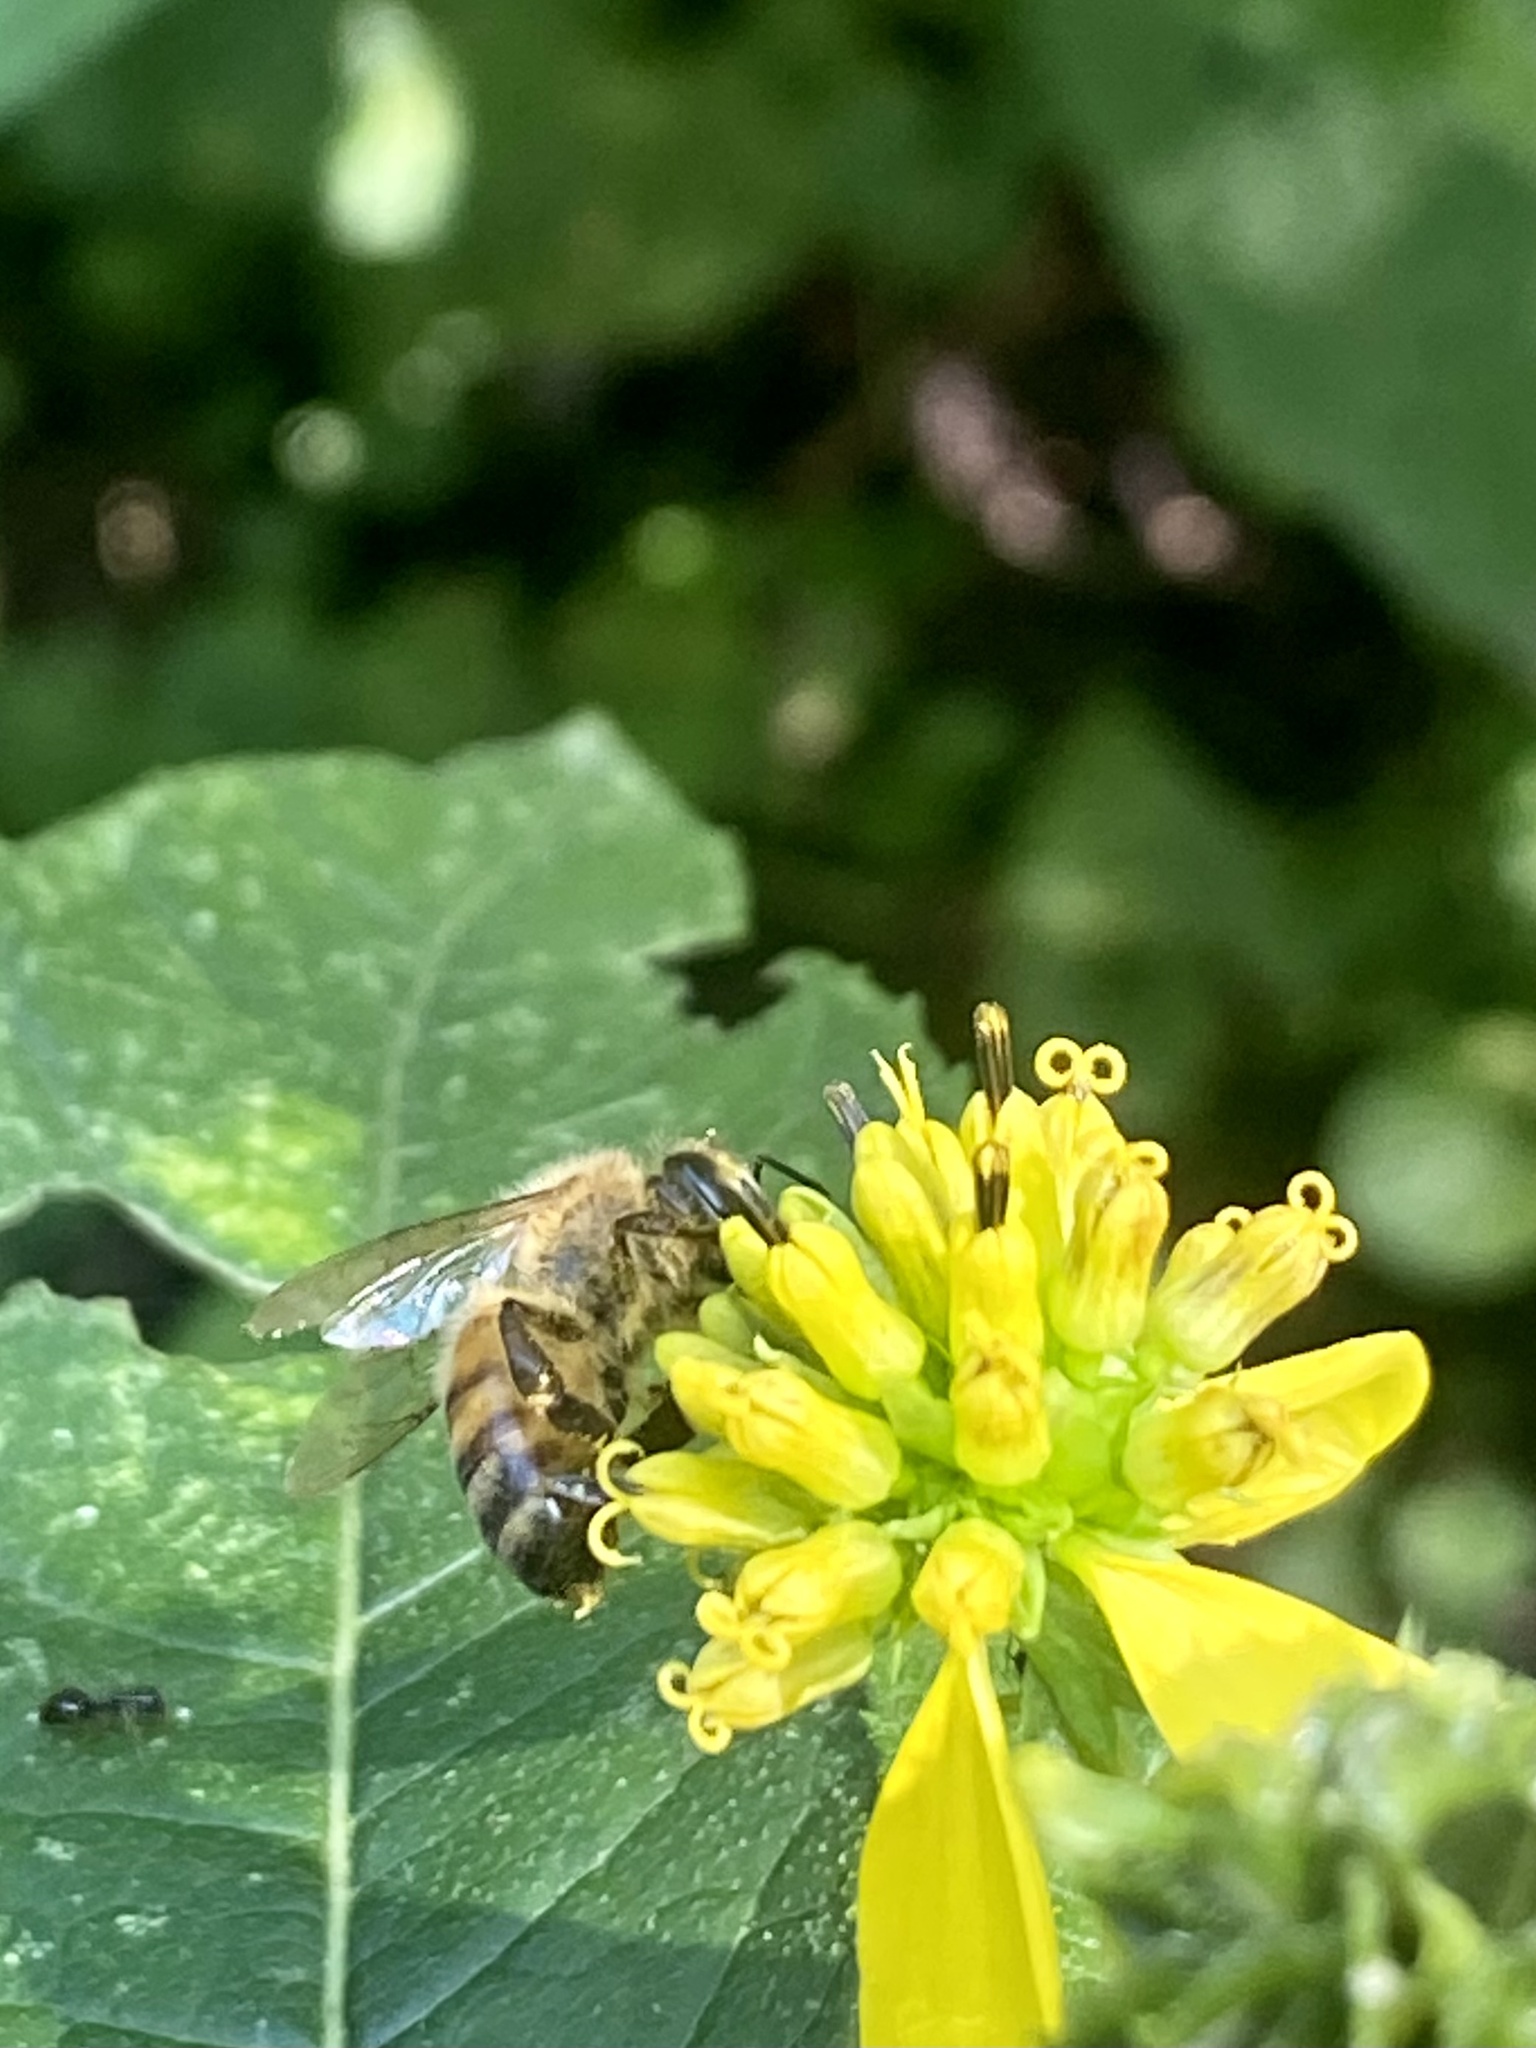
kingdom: Animalia
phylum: Arthropoda
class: Insecta
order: Hymenoptera
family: Apidae
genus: Apis
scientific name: Apis mellifera
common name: Honey bee
